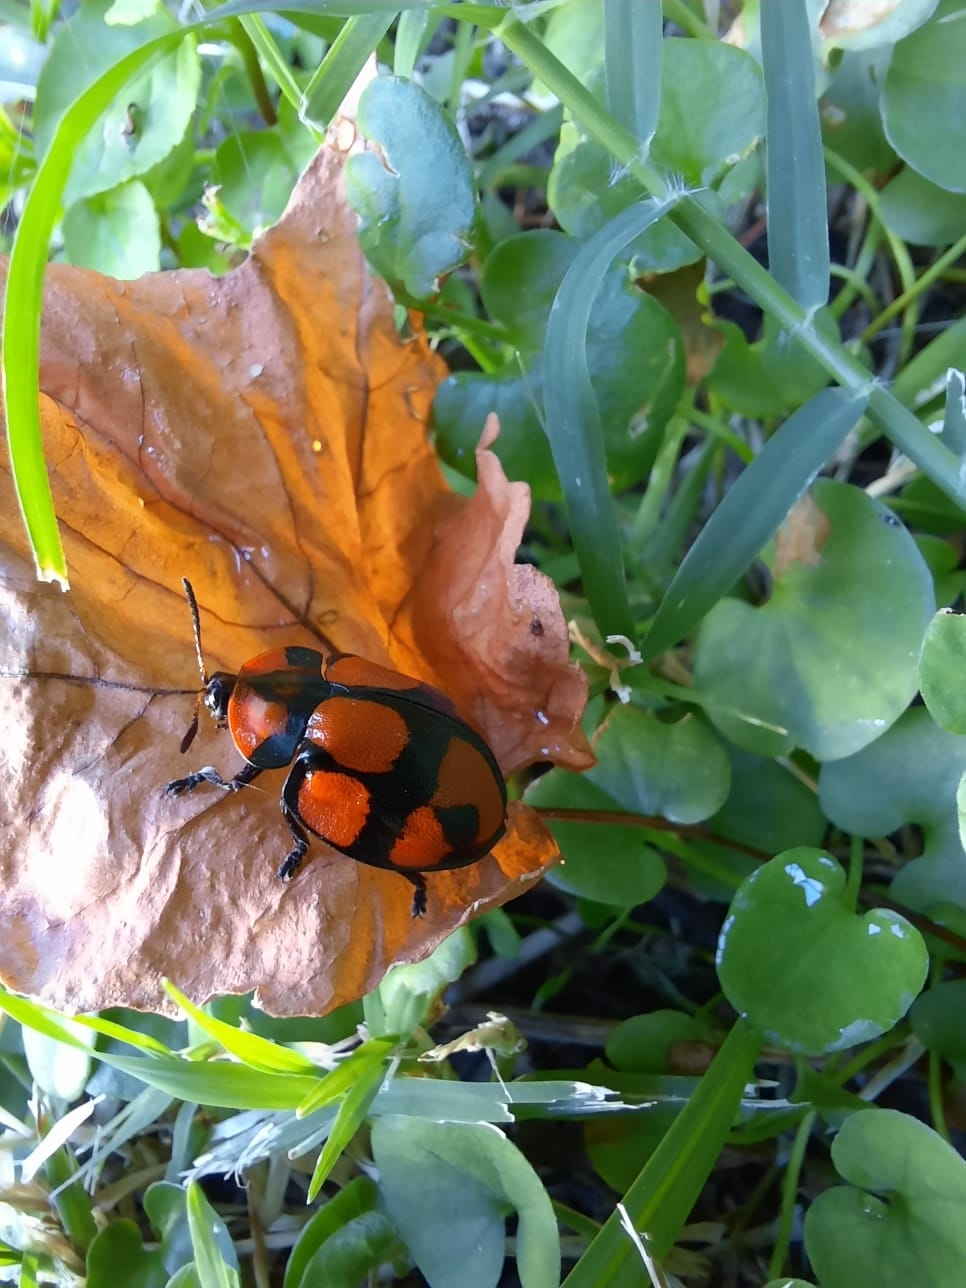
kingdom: Animalia
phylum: Arthropoda
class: Insecta
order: Coleoptera
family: Chrysomelidae
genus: Botanochara
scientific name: Botanochara octoplagiata
